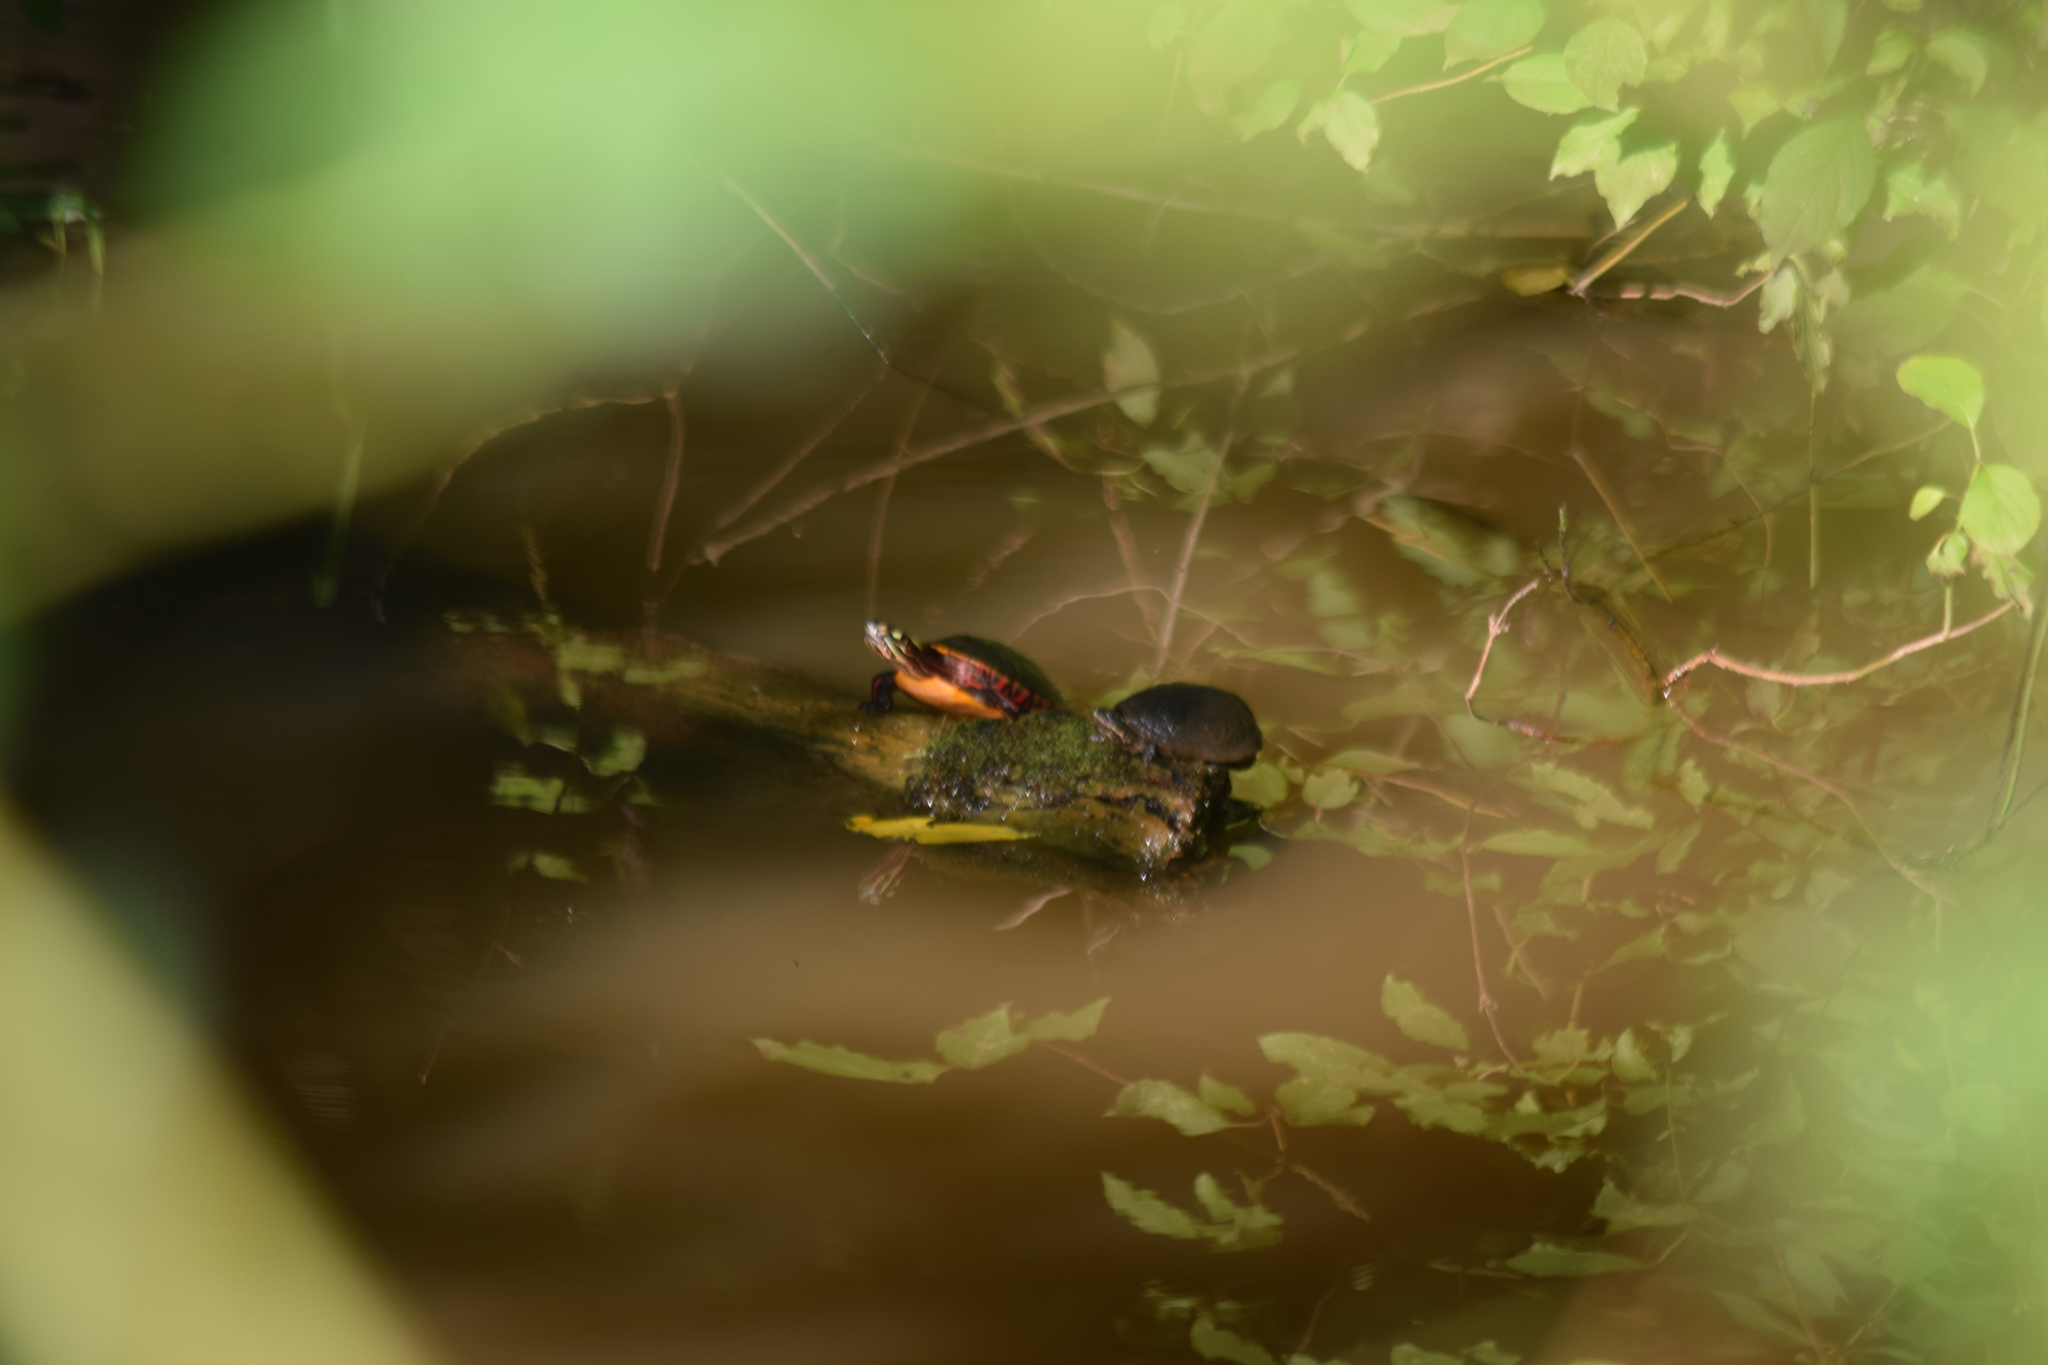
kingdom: Animalia
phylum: Chordata
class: Testudines
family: Emydidae
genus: Chrysemys
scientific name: Chrysemys picta
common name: Painted turtle
